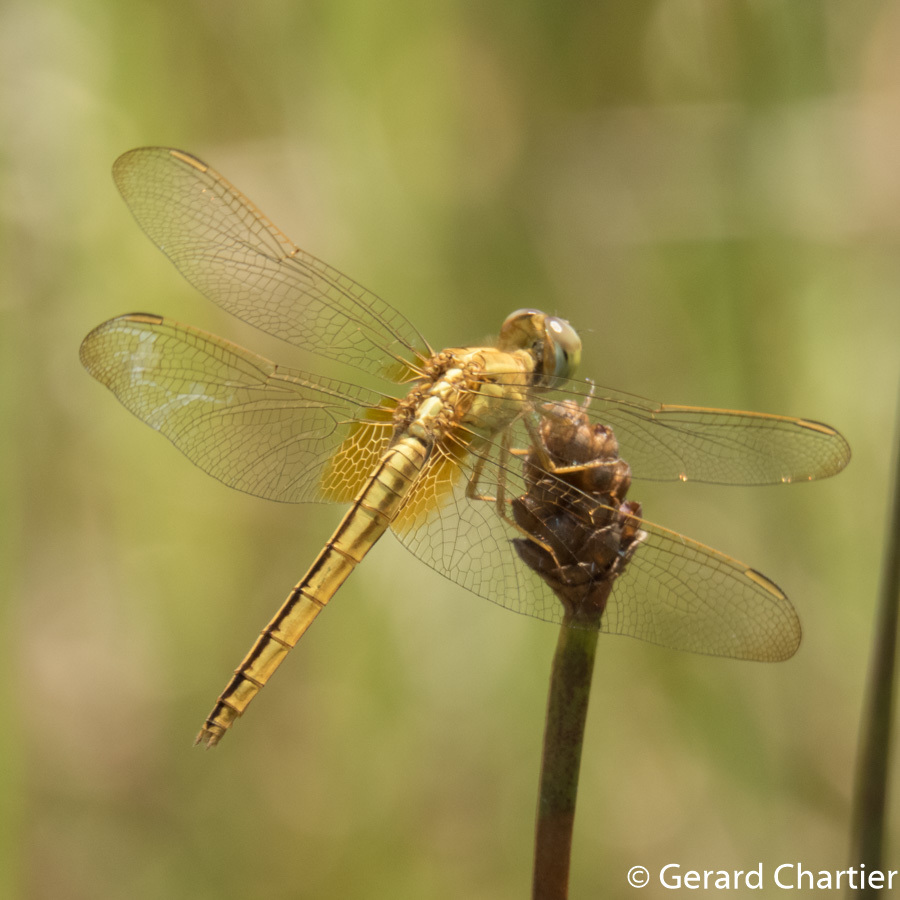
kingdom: Animalia
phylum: Arthropoda
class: Insecta
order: Odonata
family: Libellulidae
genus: Crocothemis
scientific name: Crocothemis servilia
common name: Scarlet skimmer
